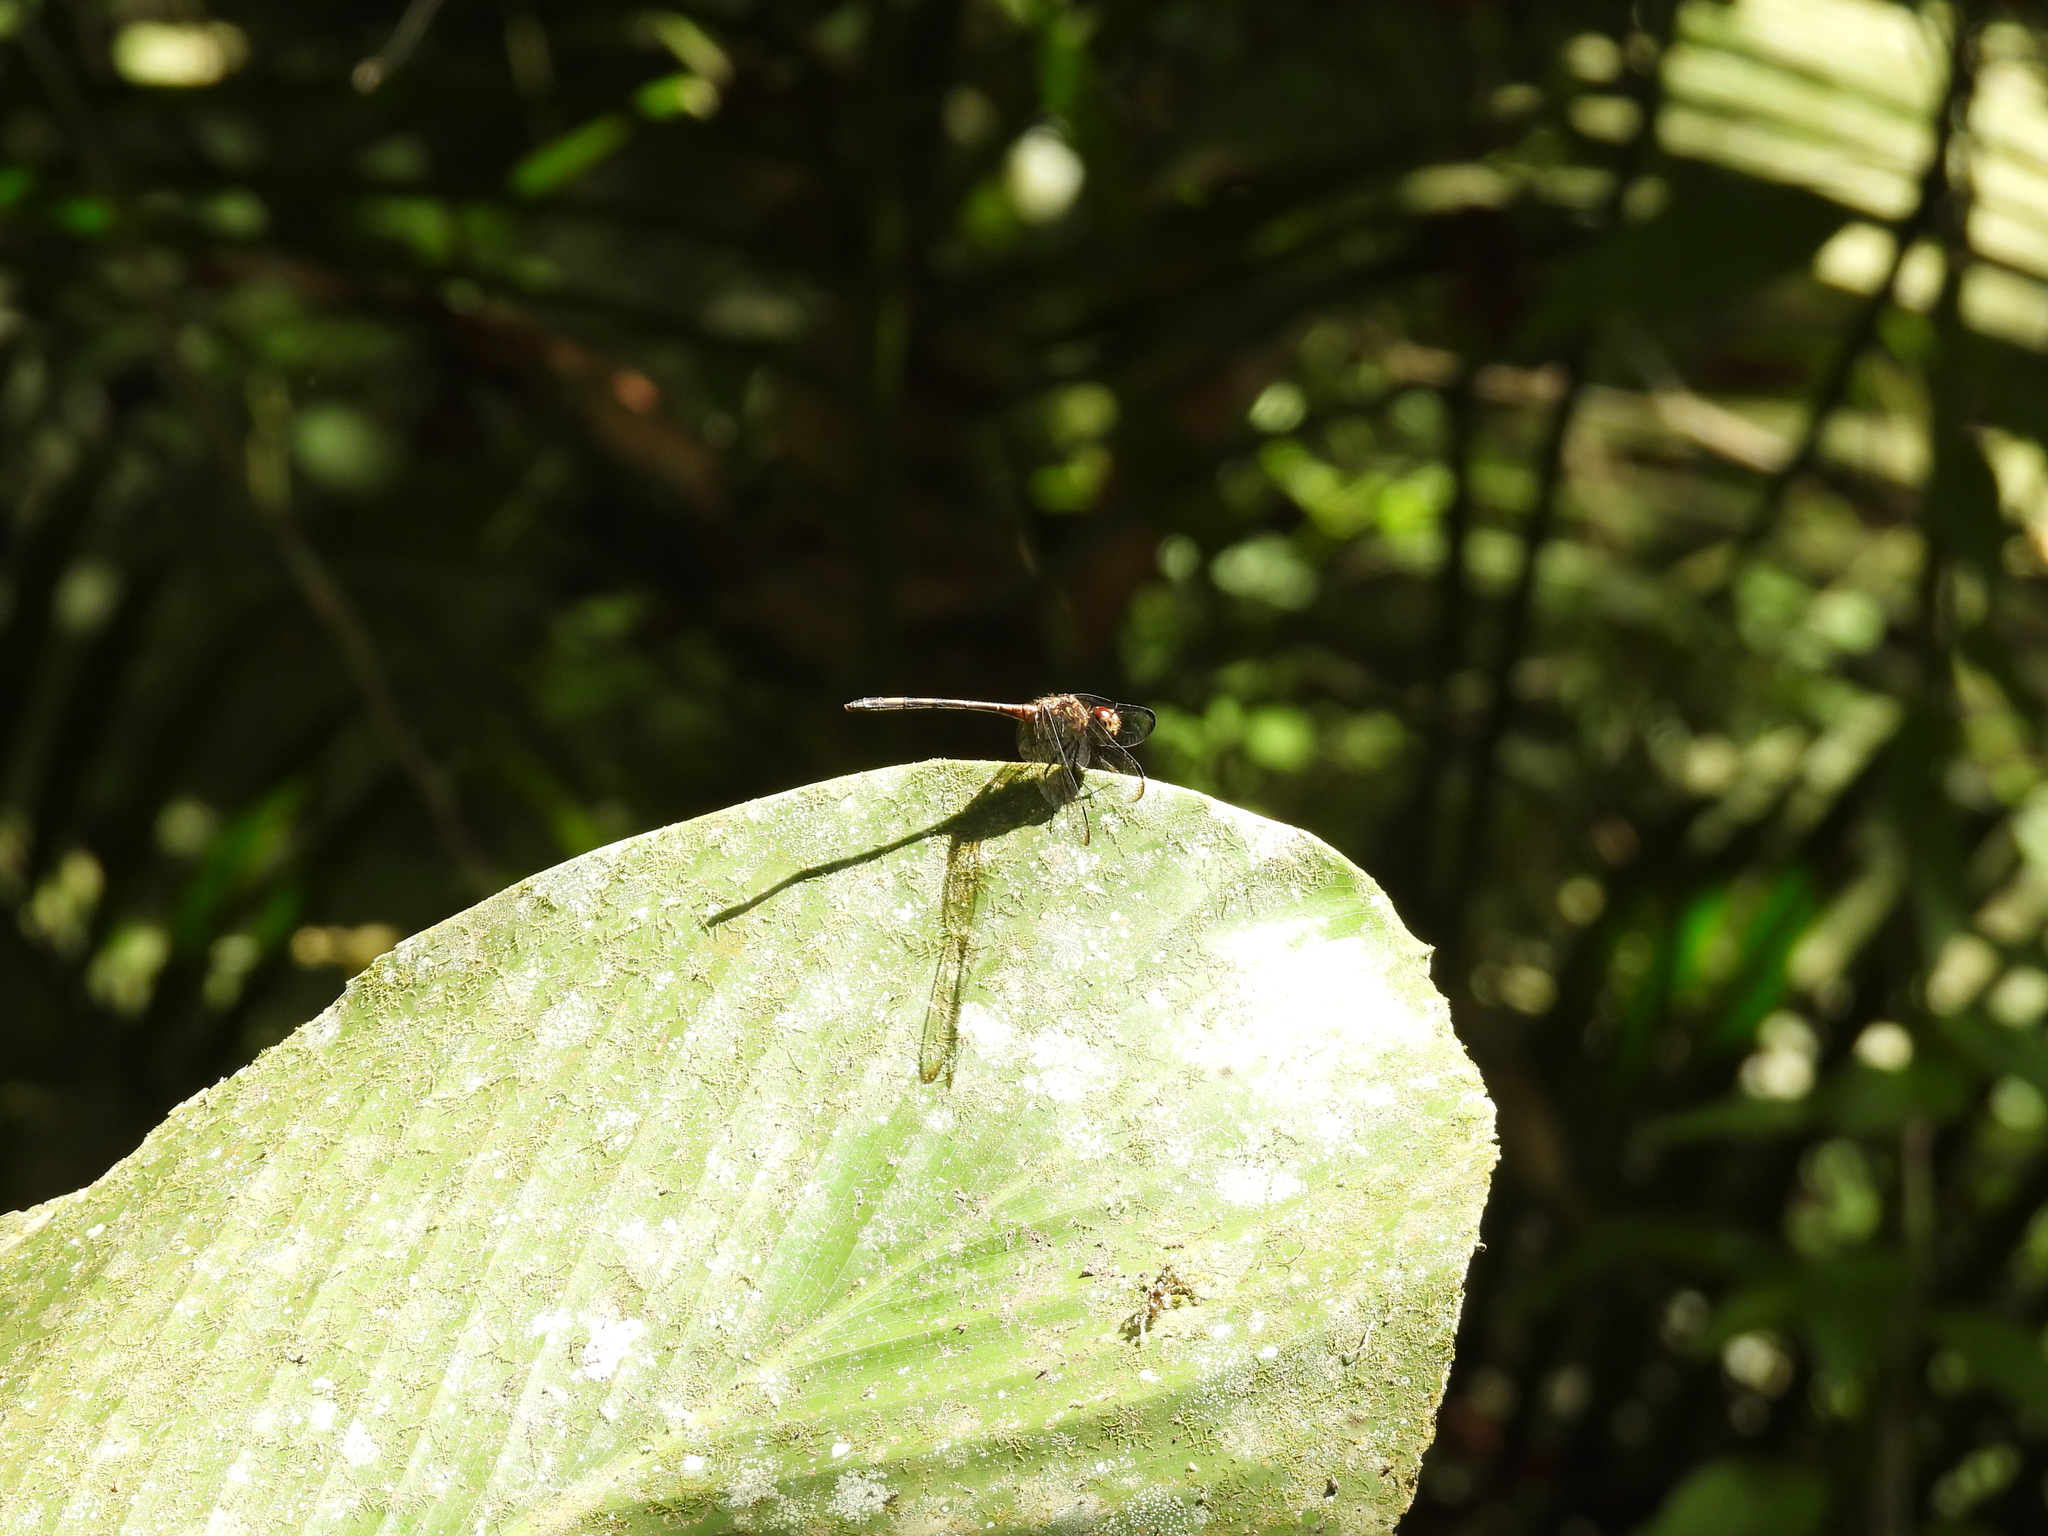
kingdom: Animalia
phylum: Arthropoda
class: Insecta
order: Odonata
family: Libellulidae
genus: Dythemis
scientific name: Dythemis sterilis
